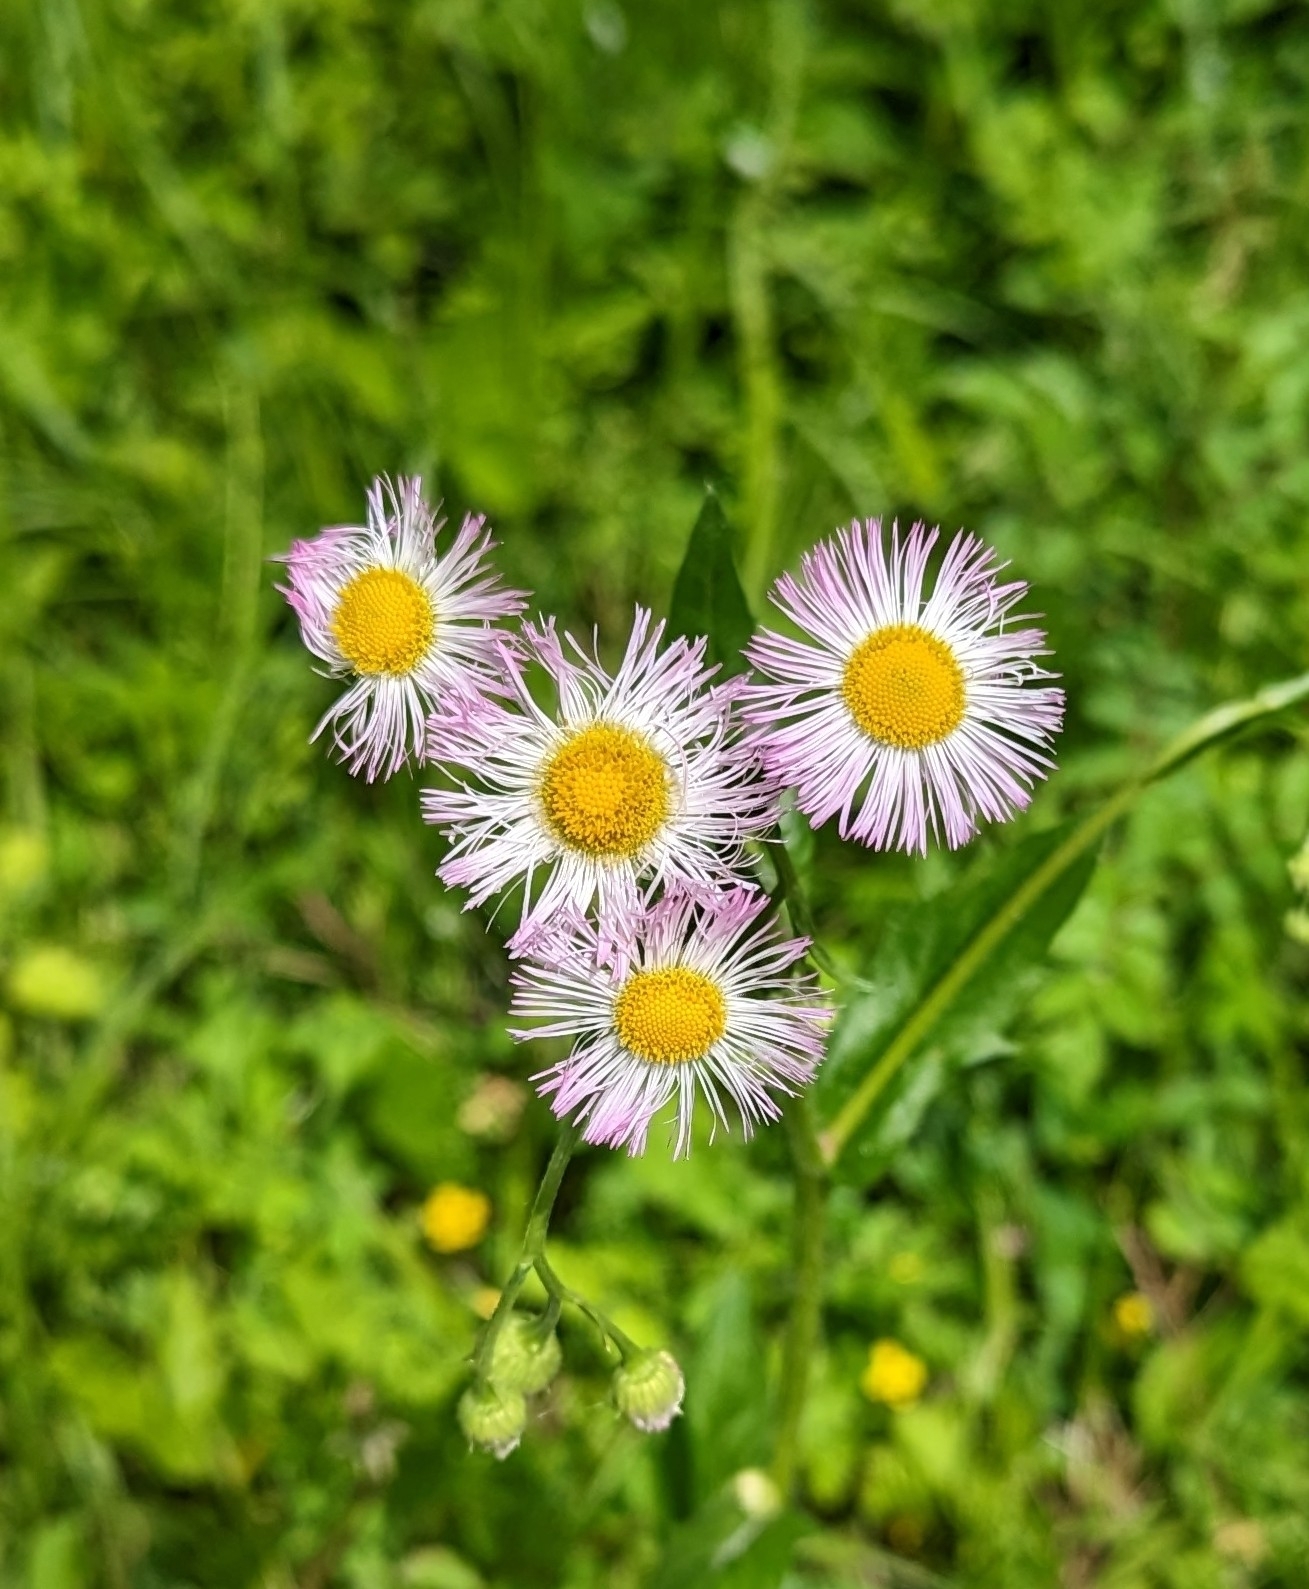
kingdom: Plantae
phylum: Tracheophyta
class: Magnoliopsida
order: Asterales
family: Asteraceae
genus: Erigeron
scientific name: Erigeron philadelphicus
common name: Robin's-plantain
